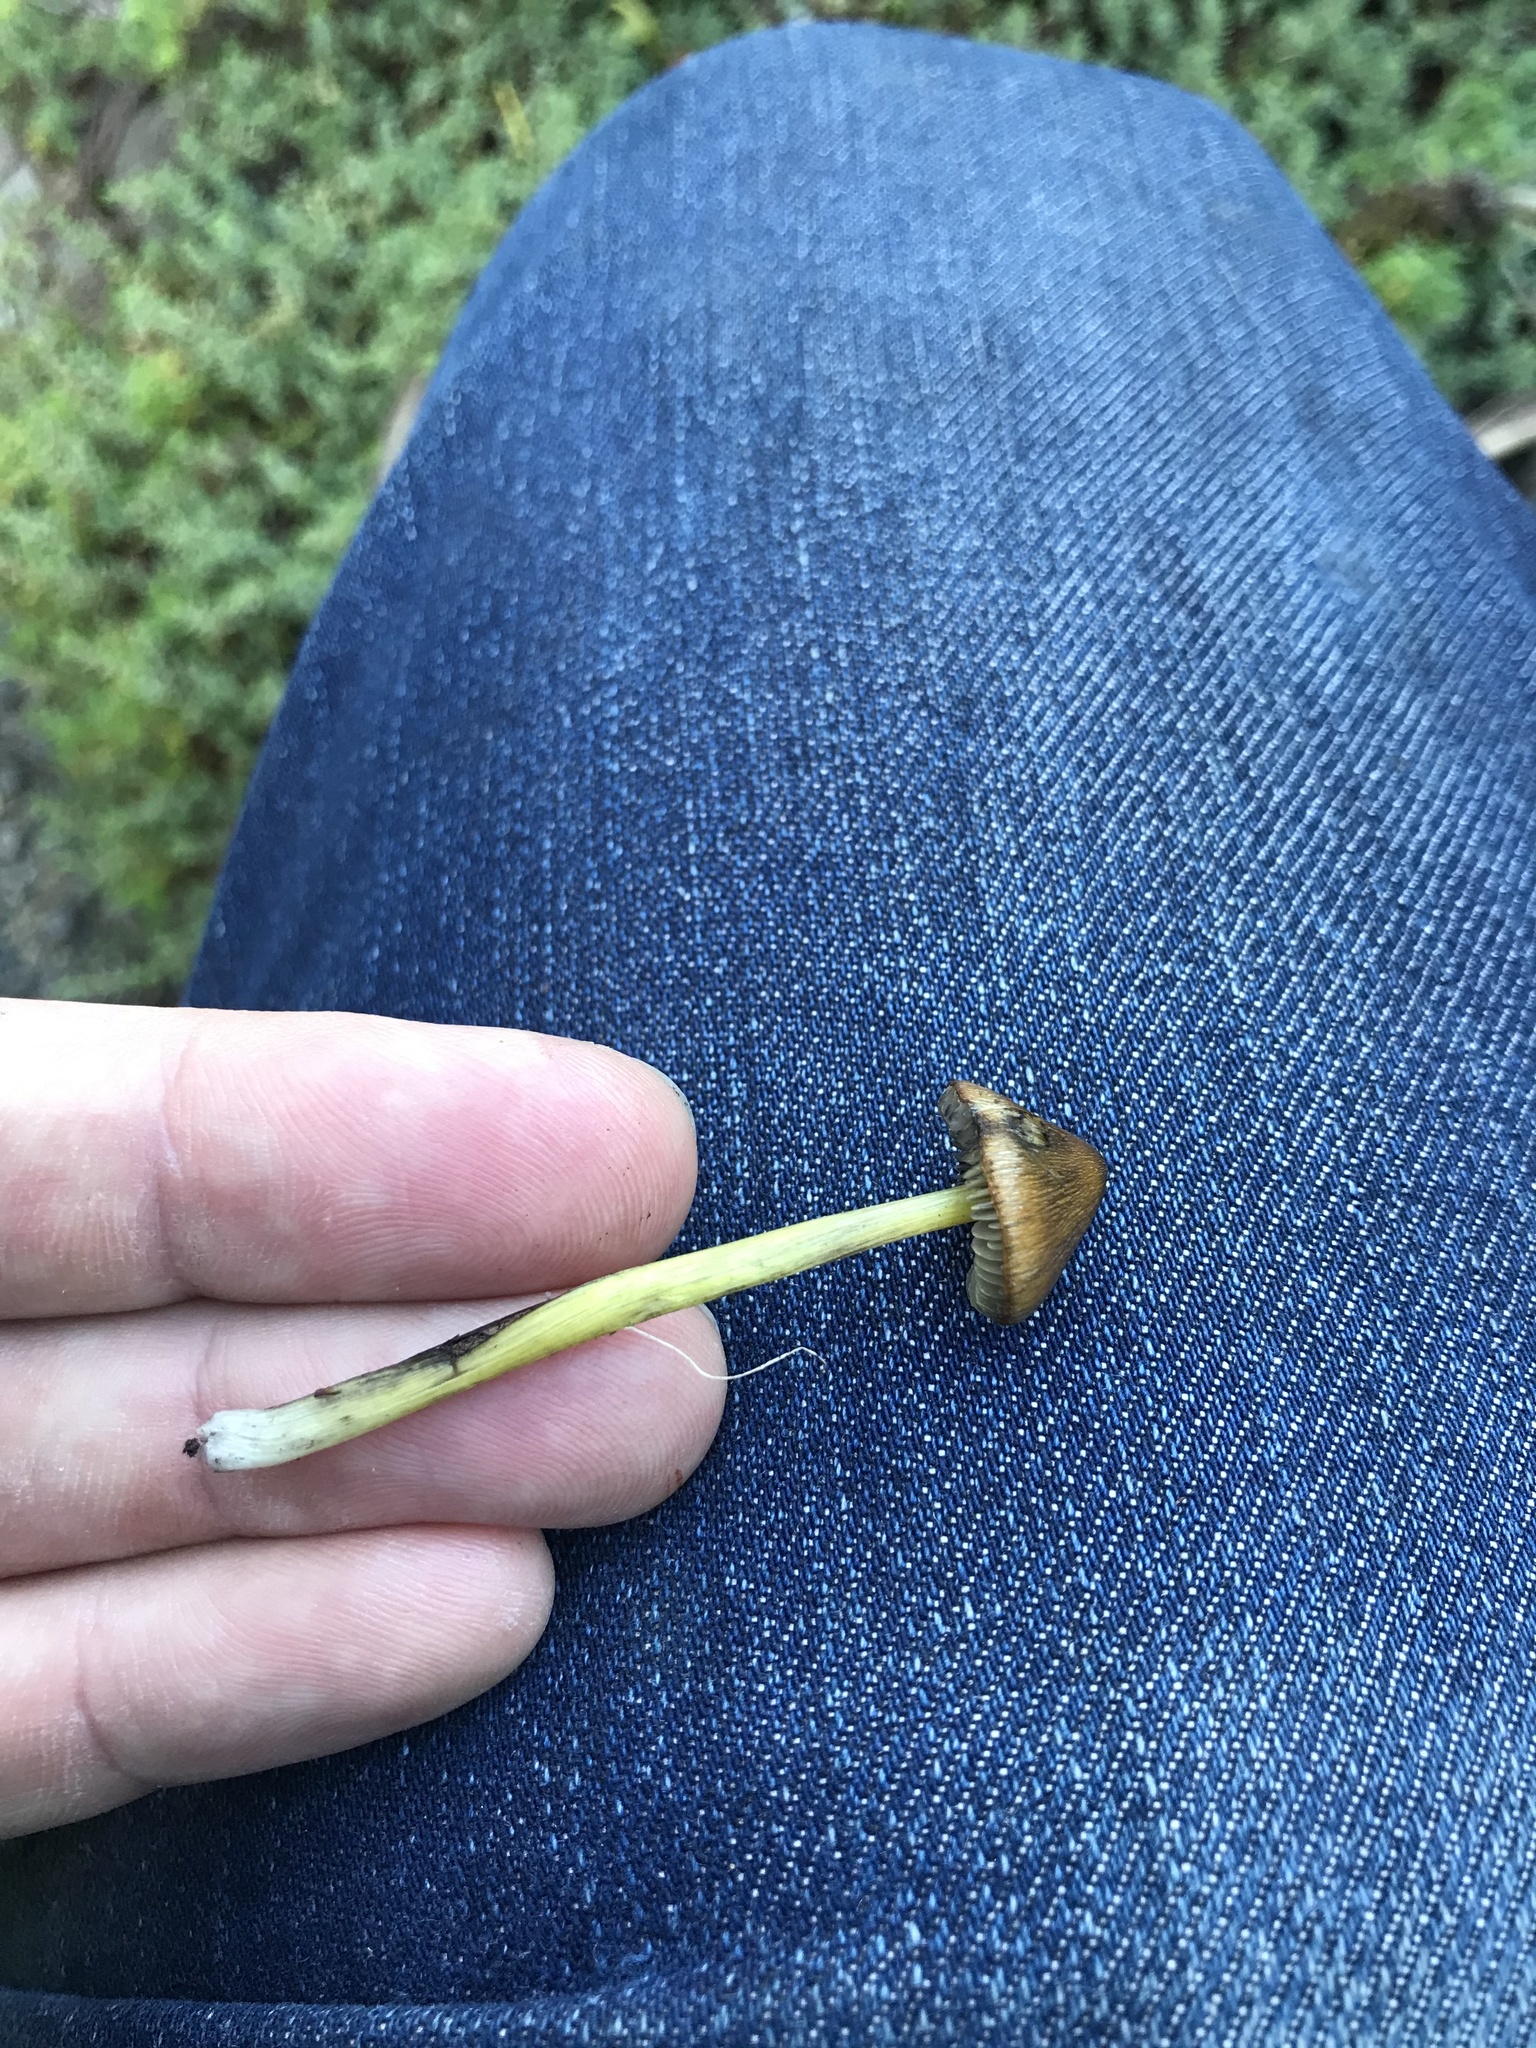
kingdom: Fungi
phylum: Basidiomycota
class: Agaricomycetes
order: Agaricales
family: Hygrophoraceae
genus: Hygrocybe
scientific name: Hygrocybe conica
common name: Blackening wax-cap
